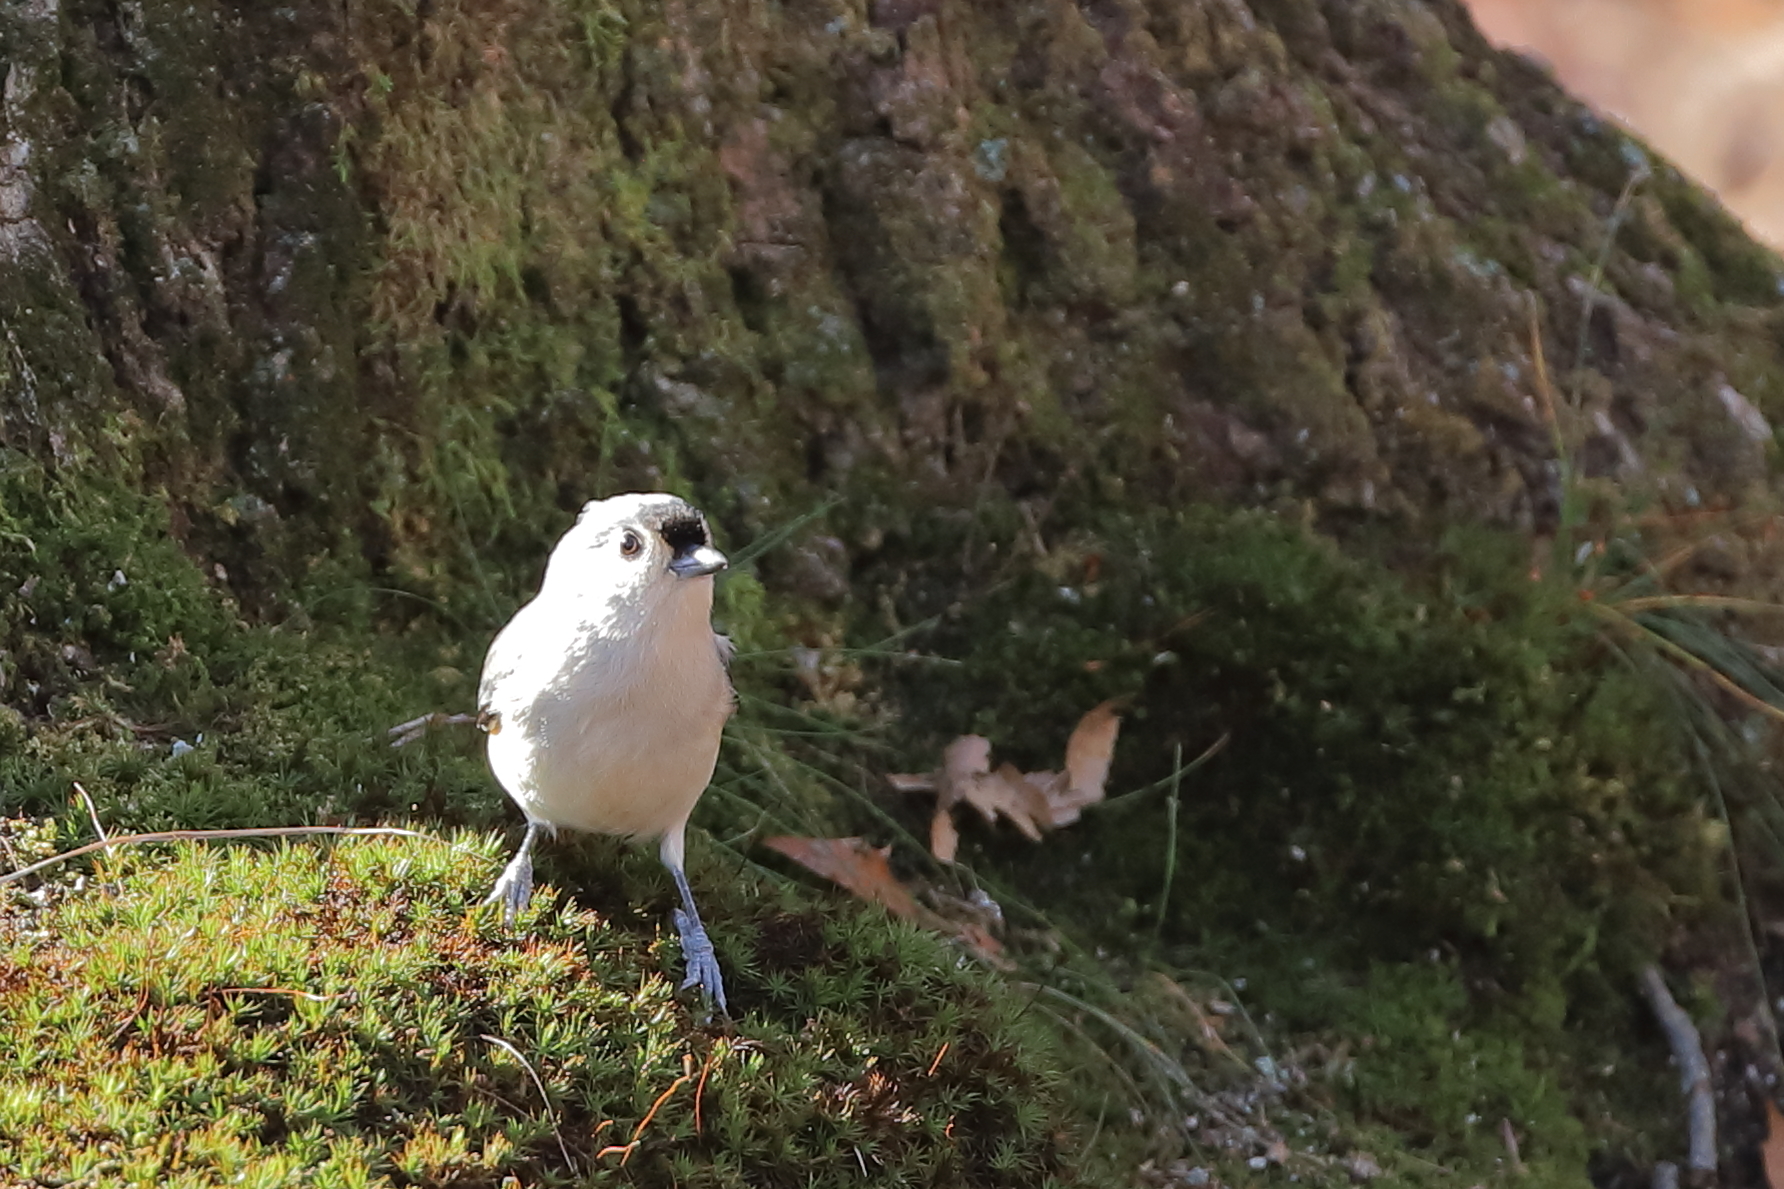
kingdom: Animalia
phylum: Chordata
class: Aves
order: Passeriformes
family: Paridae
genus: Baeolophus
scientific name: Baeolophus bicolor
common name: Tufted titmouse
